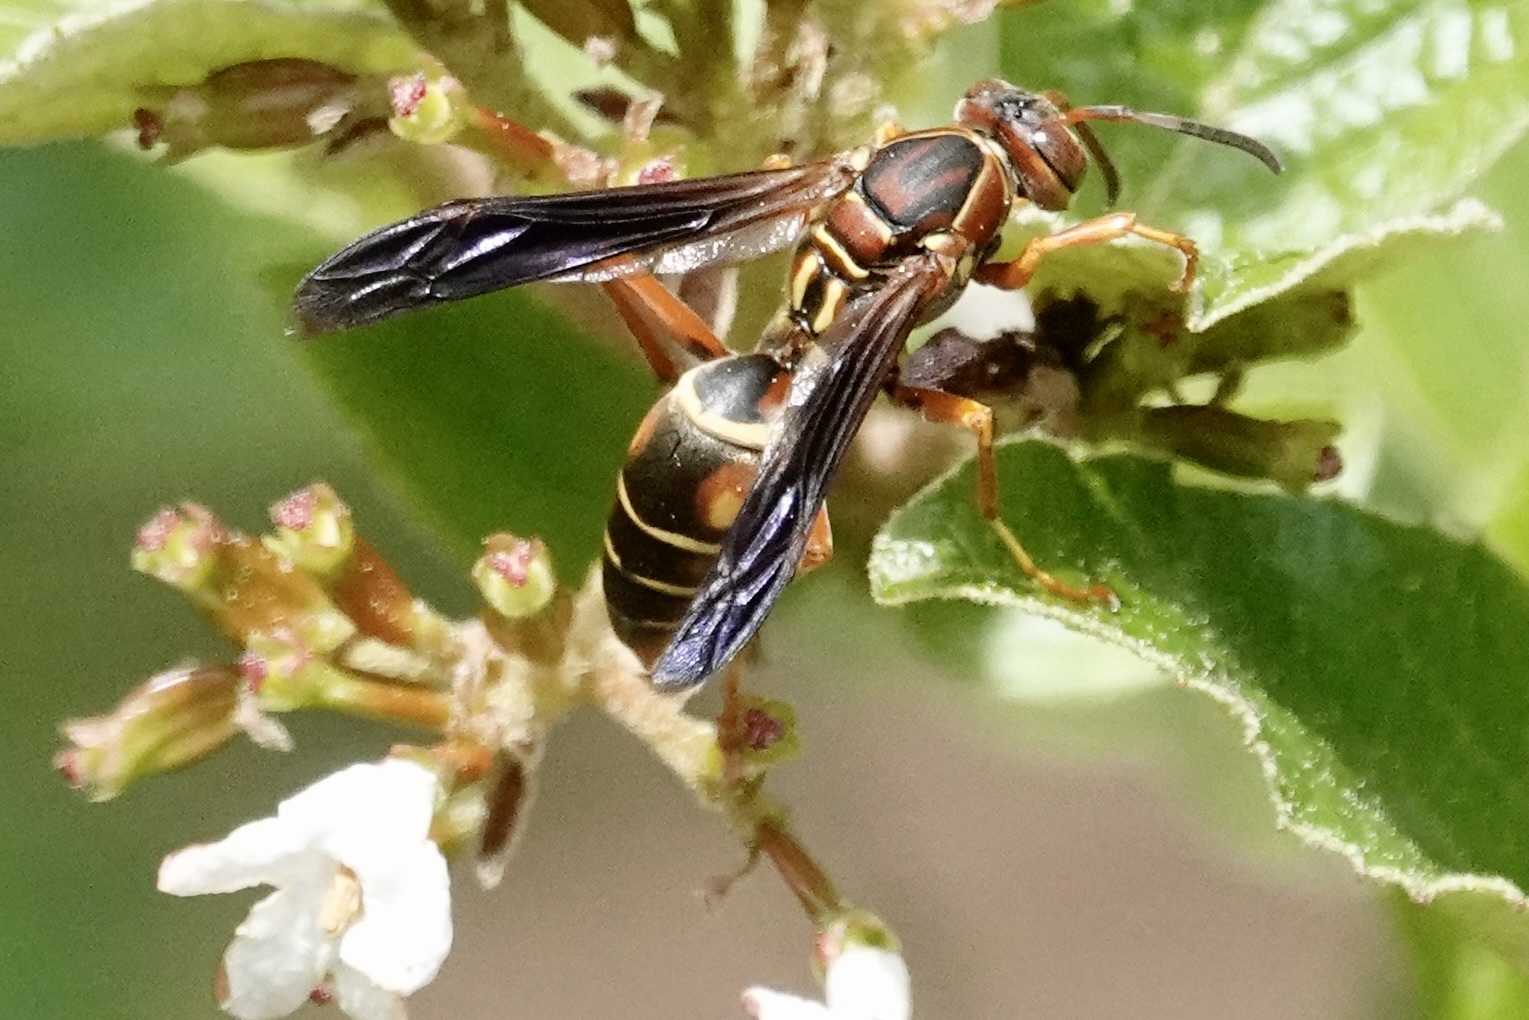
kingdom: Animalia
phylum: Arthropoda
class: Insecta
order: Hymenoptera
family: Eumenidae
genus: Polistes
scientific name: Polistes fuscatus
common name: Dark paper wasp
